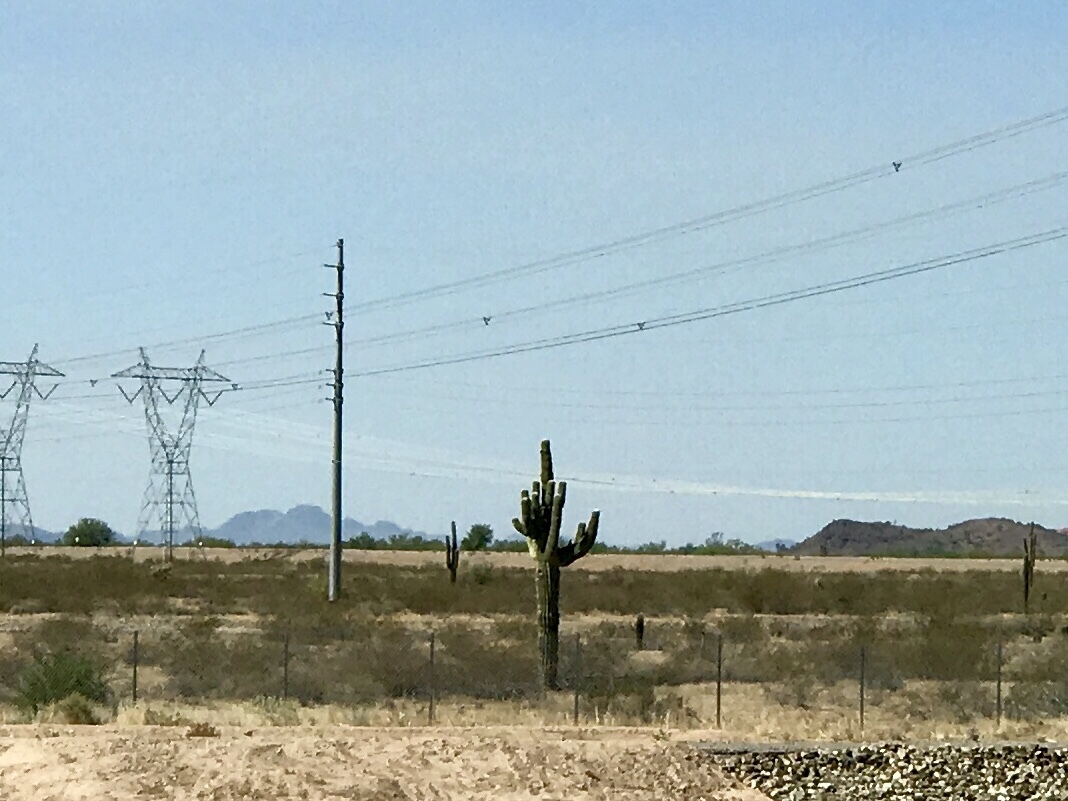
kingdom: Plantae
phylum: Tracheophyta
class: Magnoliopsida
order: Caryophyllales
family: Cactaceae
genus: Carnegiea
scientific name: Carnegiea gigantea
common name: Saguaro
